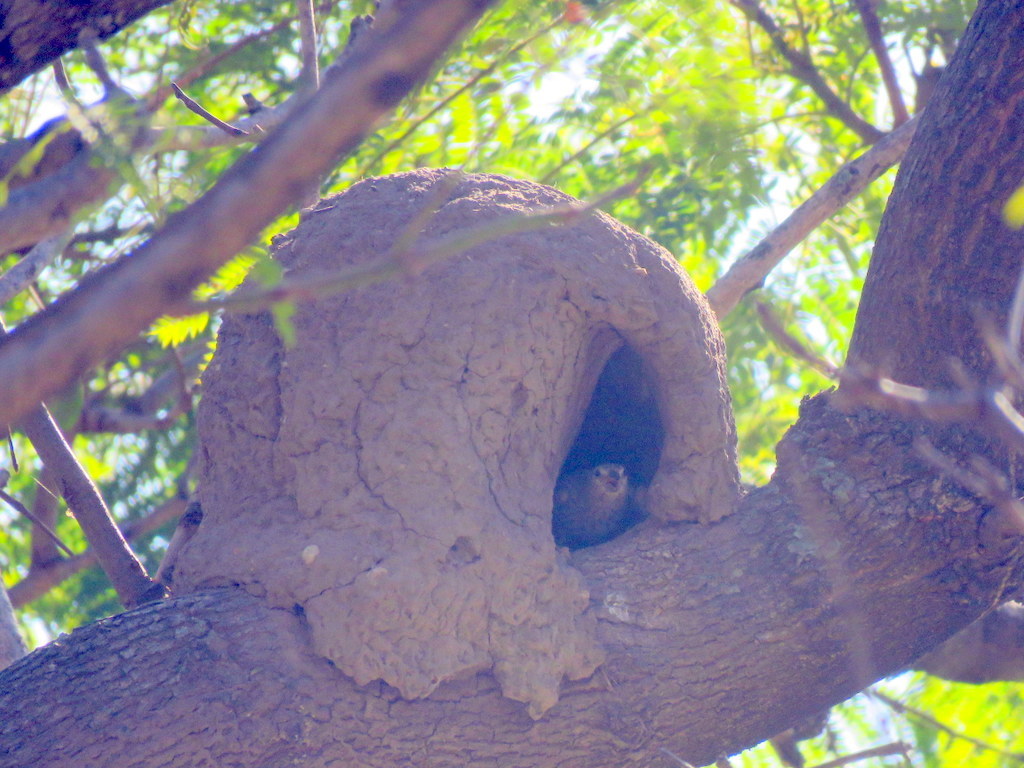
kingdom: Animalia
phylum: Chordata
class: Aves
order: Passeriformes
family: Thraupidae
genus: Sicalis
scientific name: Sicalis flaveola
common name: Saffron finch
